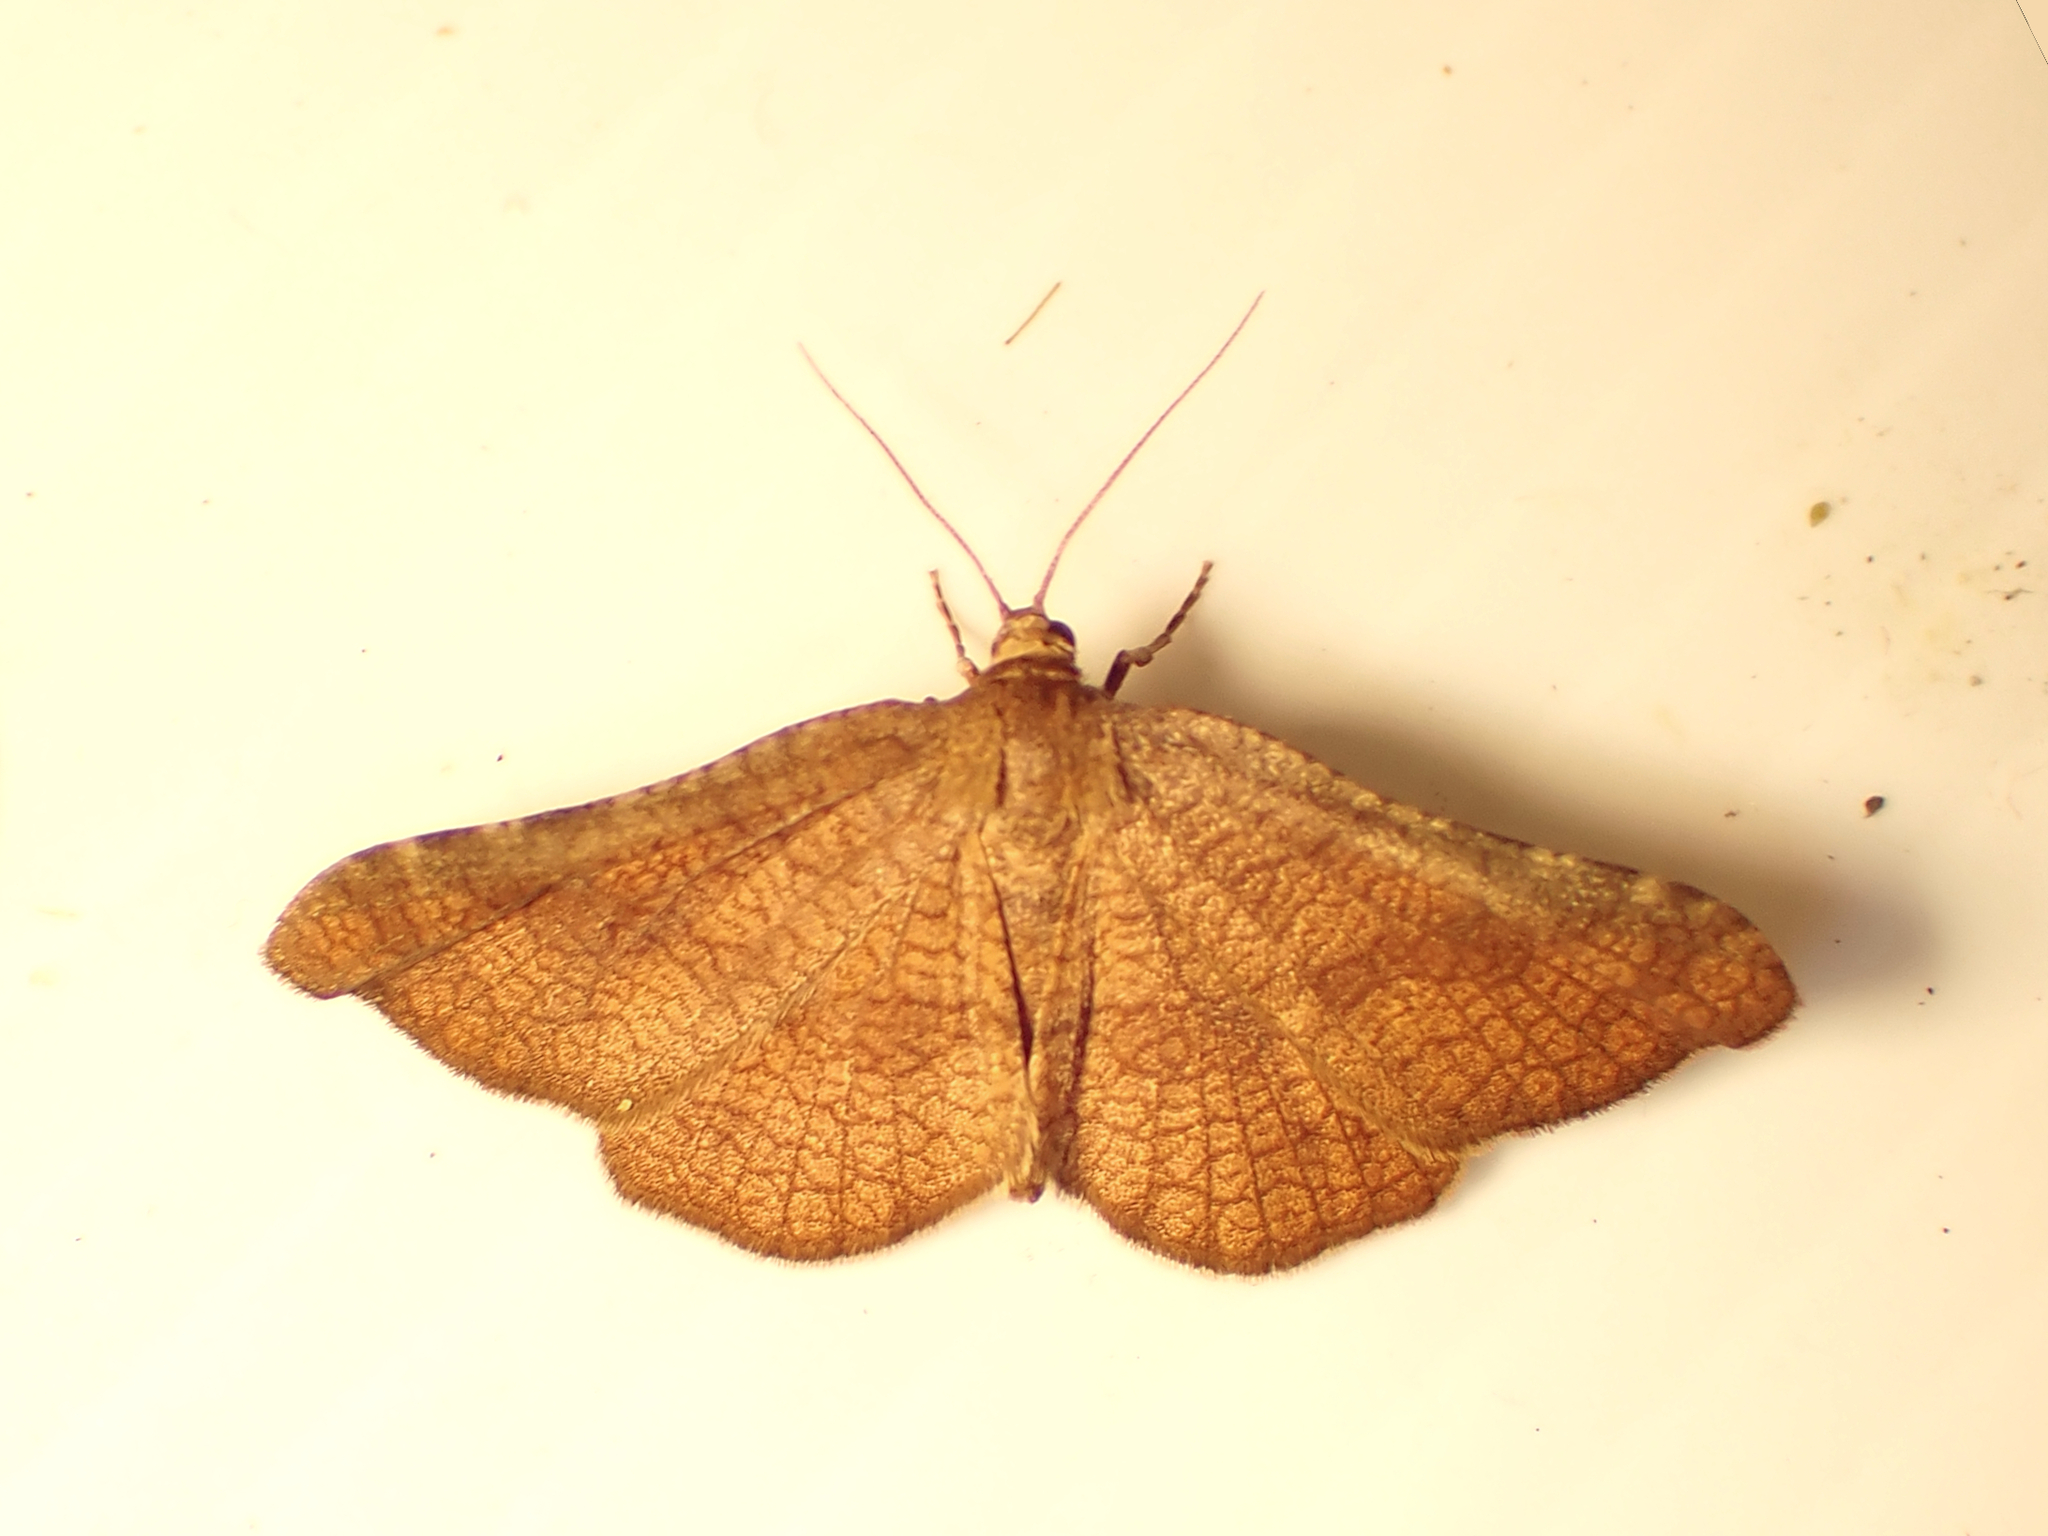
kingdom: Animalia
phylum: Arthropoda
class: Insecta
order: Lepidoptera
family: Thyrididae
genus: Morova
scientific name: Morova subfasciata
